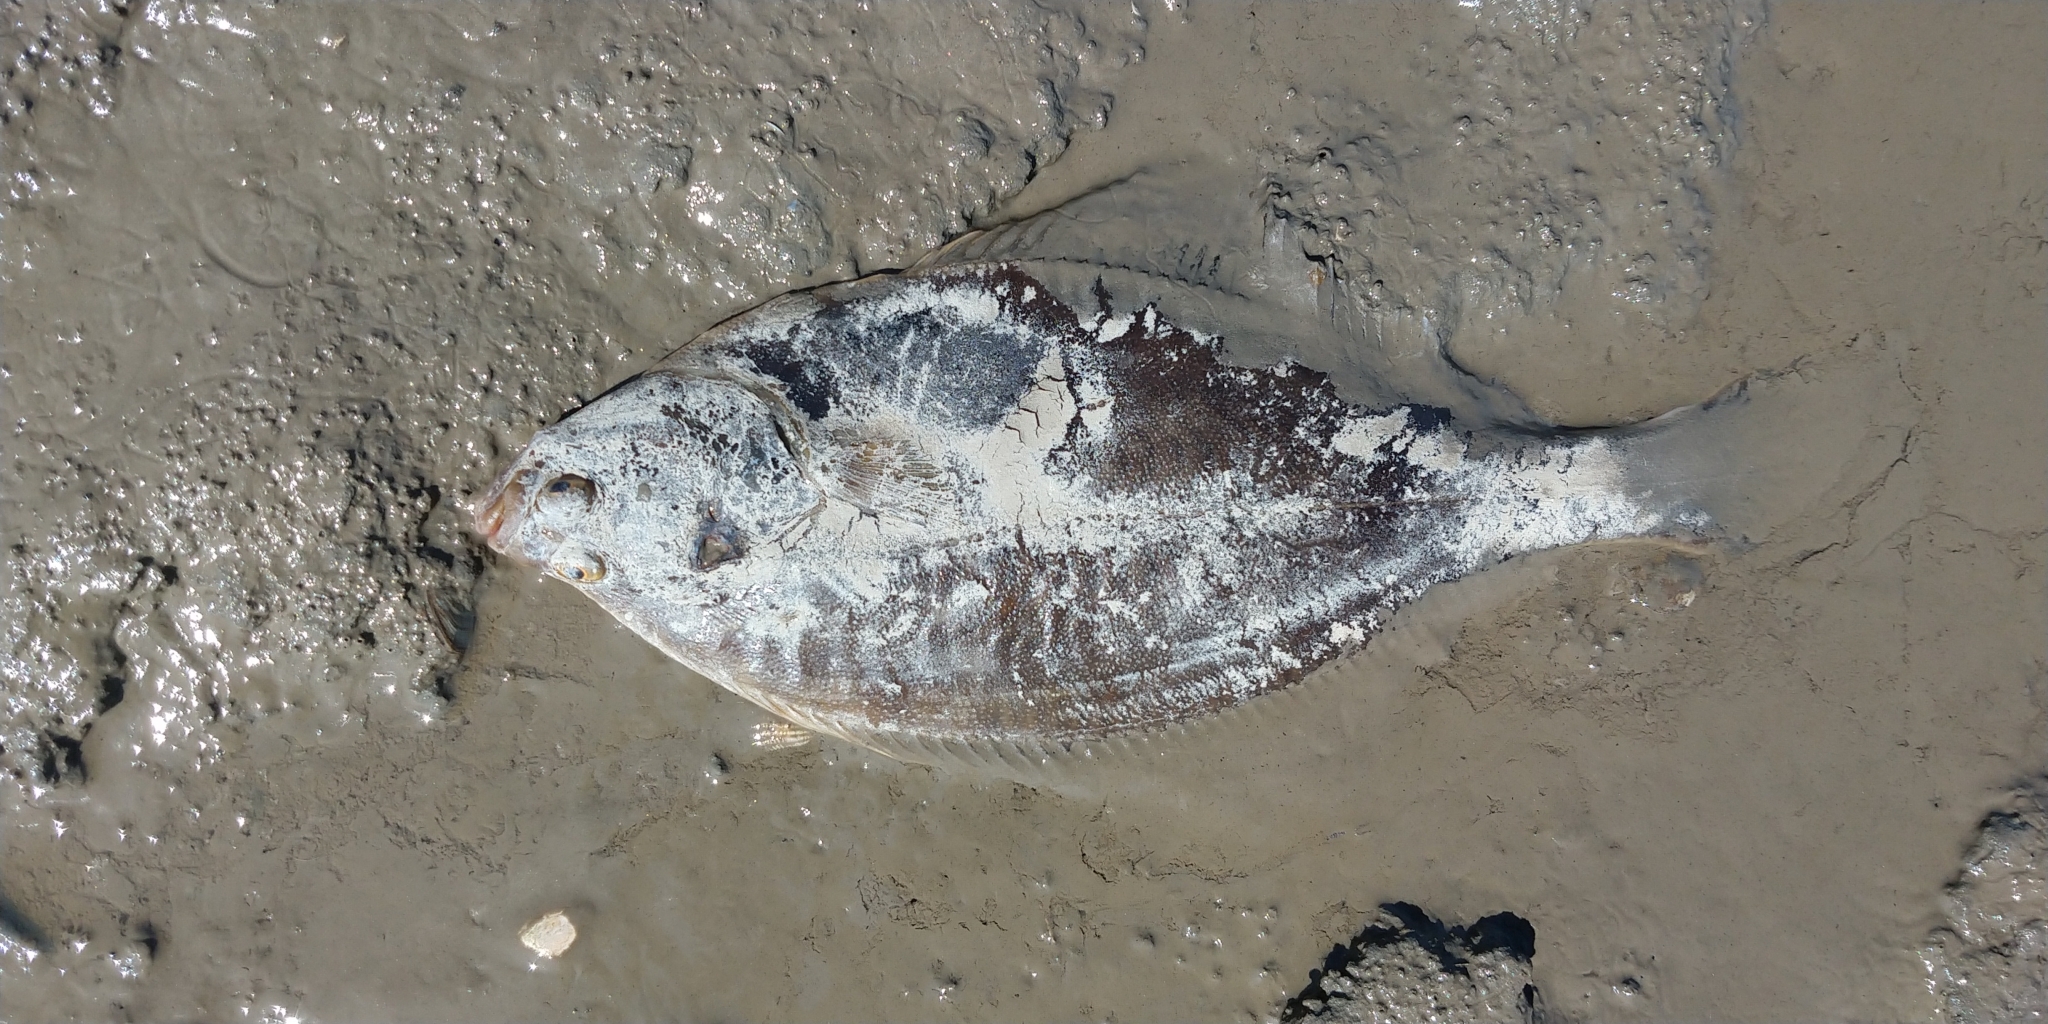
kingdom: Animalia
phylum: Chordata
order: Pleuronectiformes
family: Pleuronectidae
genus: Platichthys
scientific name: Platichthys flesus
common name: European flounder
